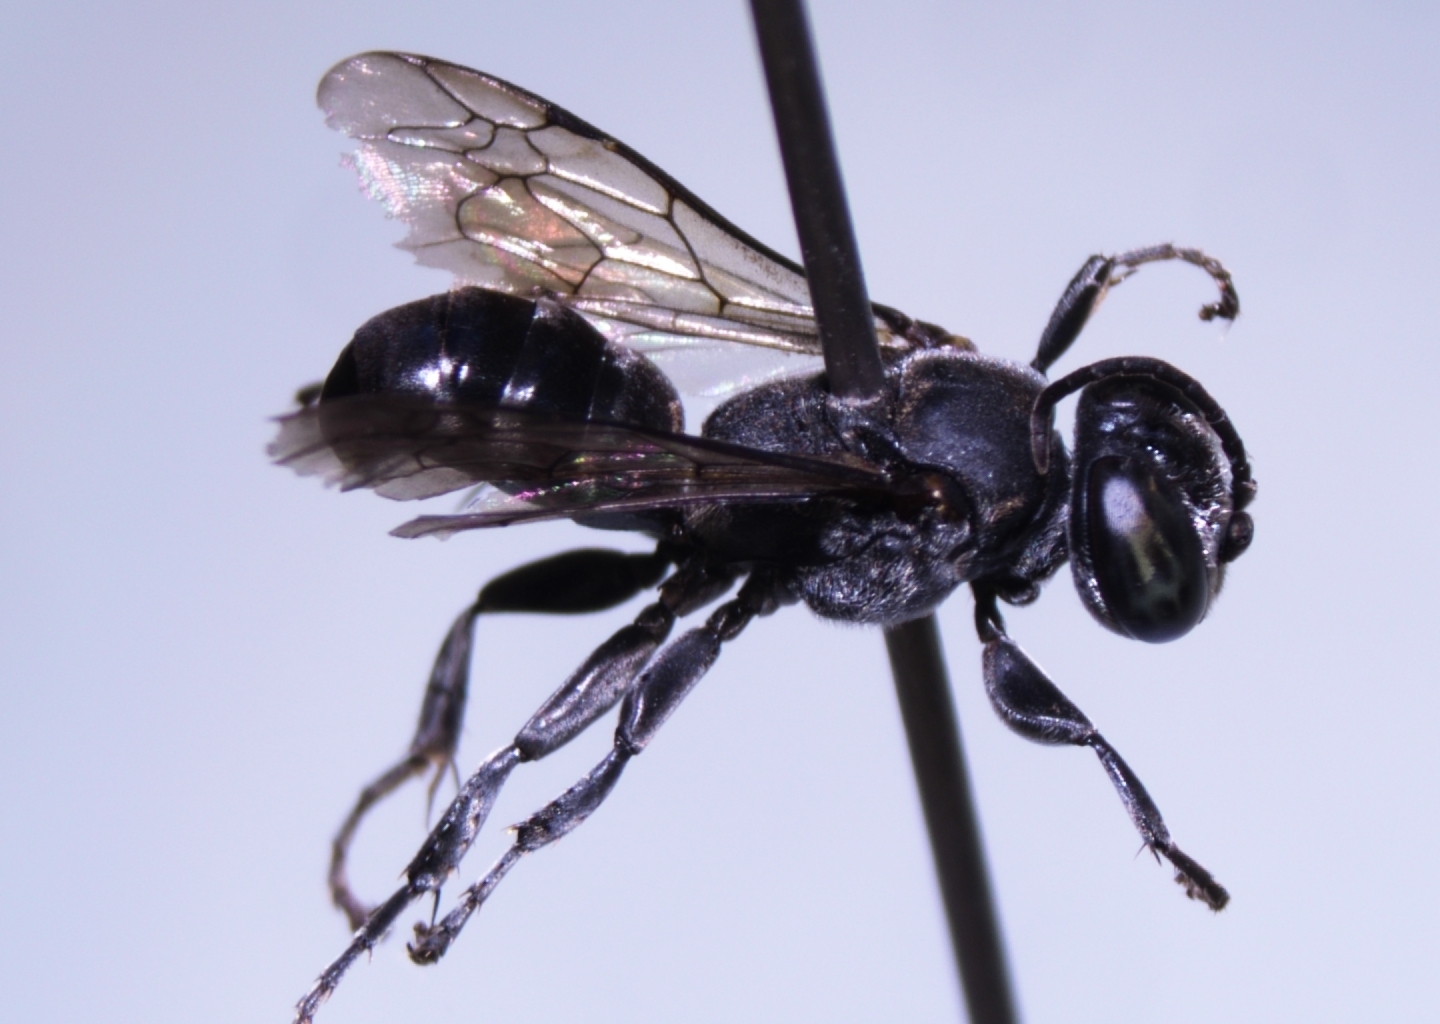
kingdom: Animalia
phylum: Arthropoda
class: Insecta
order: Hymenoptera
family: Crabronidae
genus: Tachysphex
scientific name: Tachysphex fanuiensis
